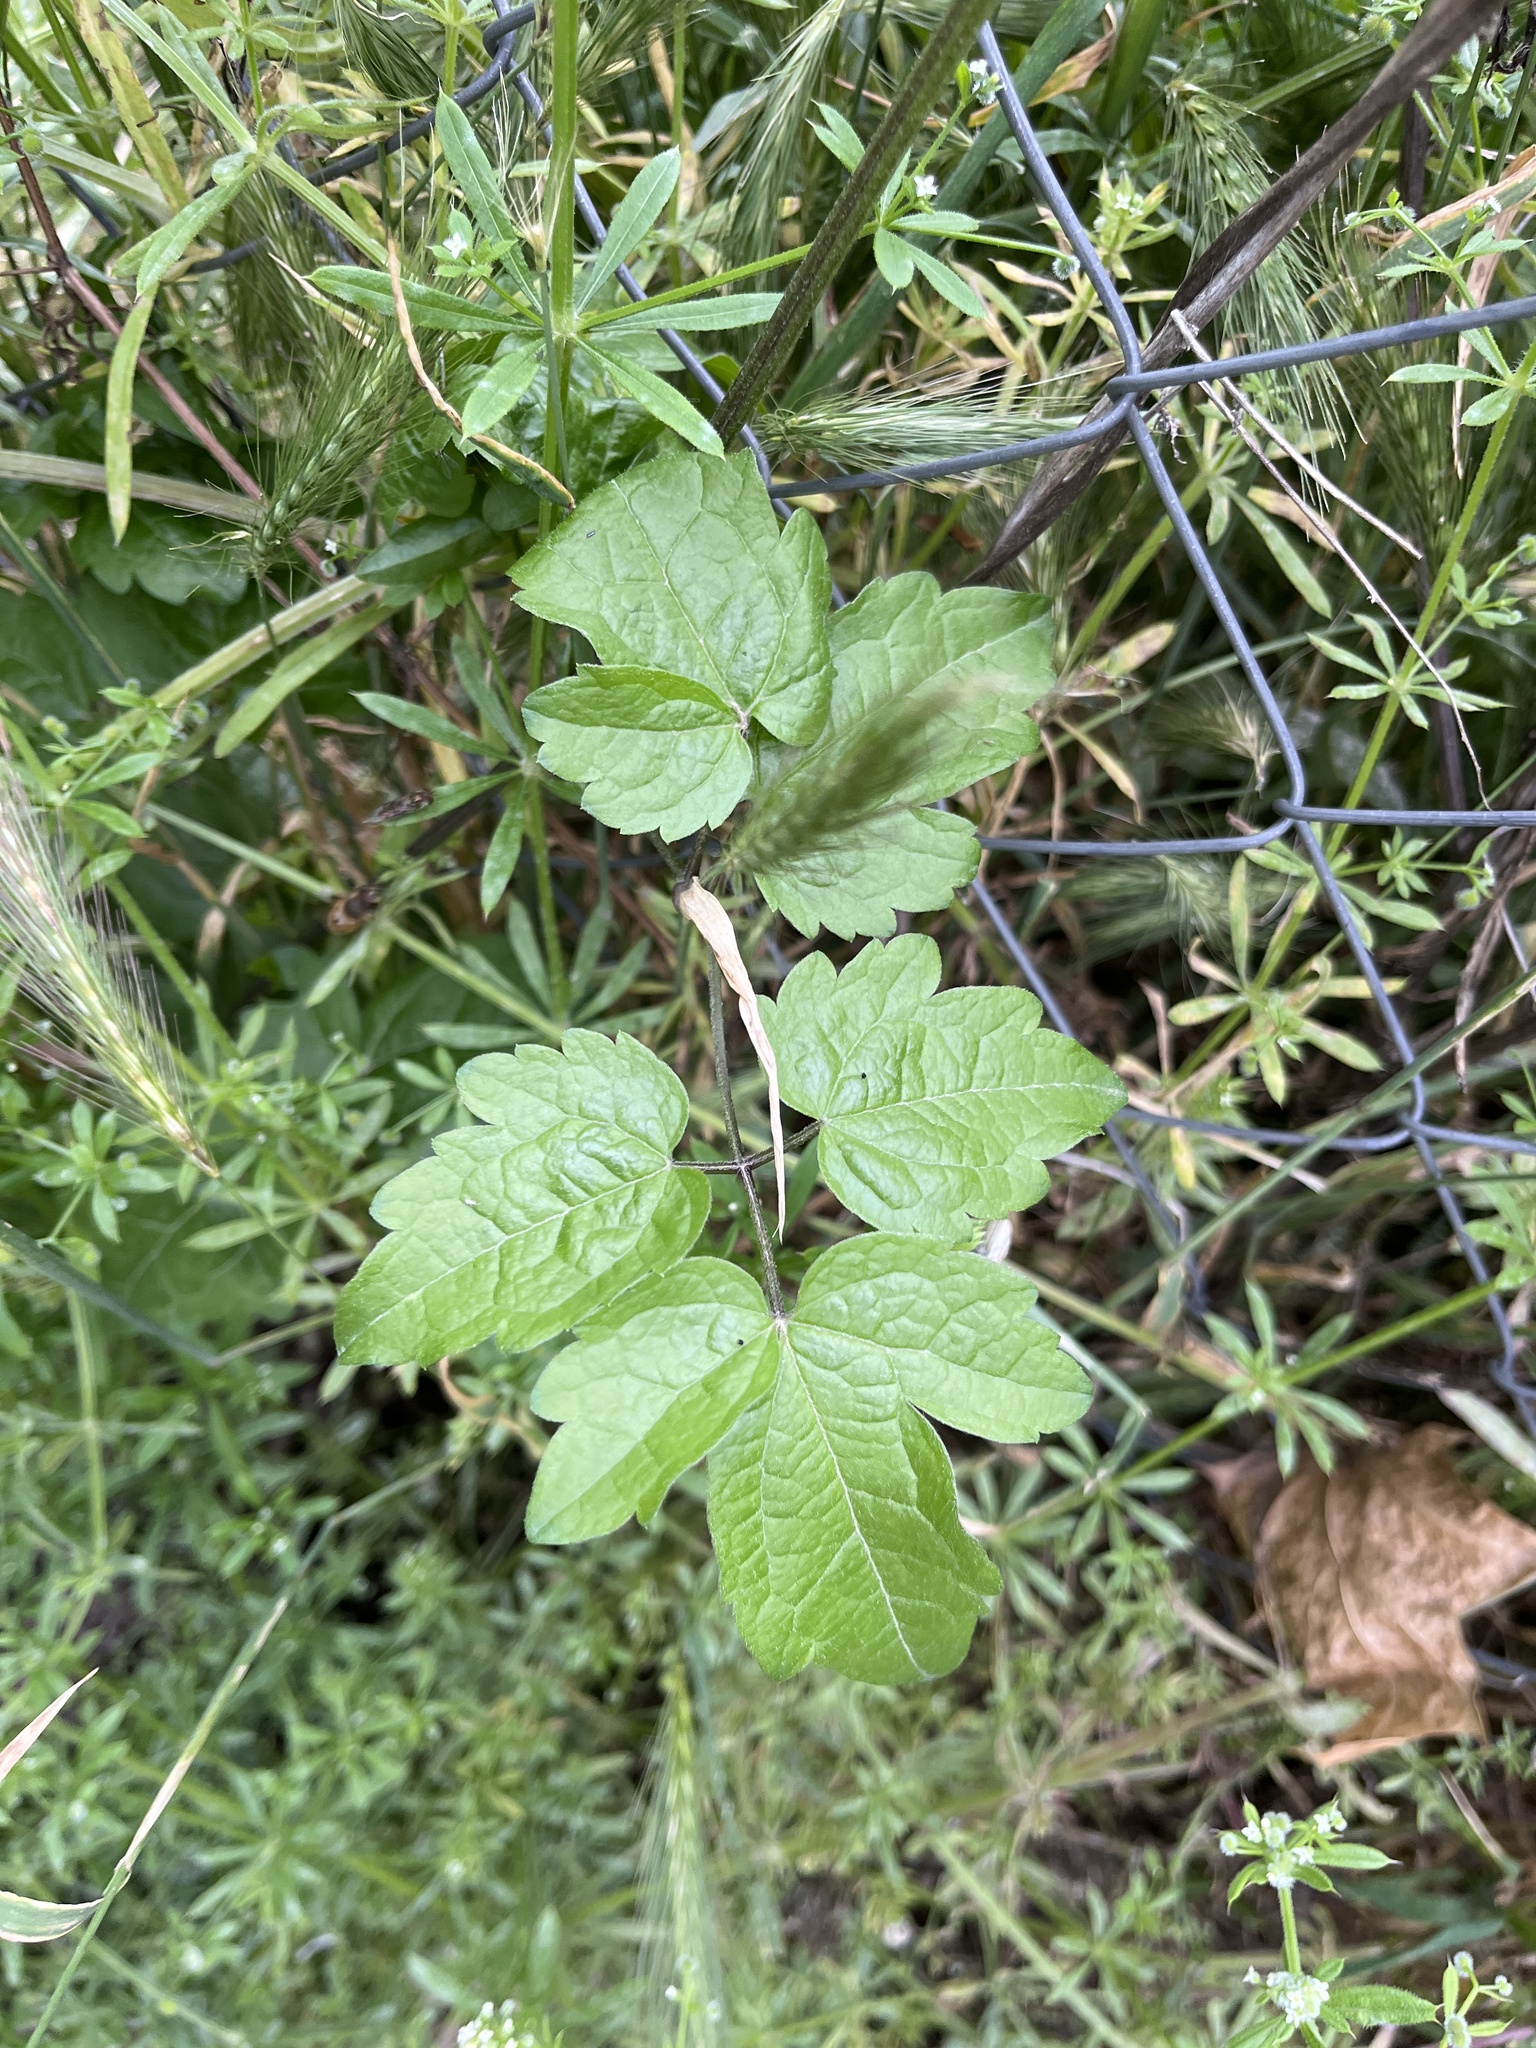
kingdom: Plantae
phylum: Tracheophyta
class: Magnoliopsida
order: Ranunculales
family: Ranunculaceae
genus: Clematis
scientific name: Clematis vitalba
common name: Evergreen clematis
